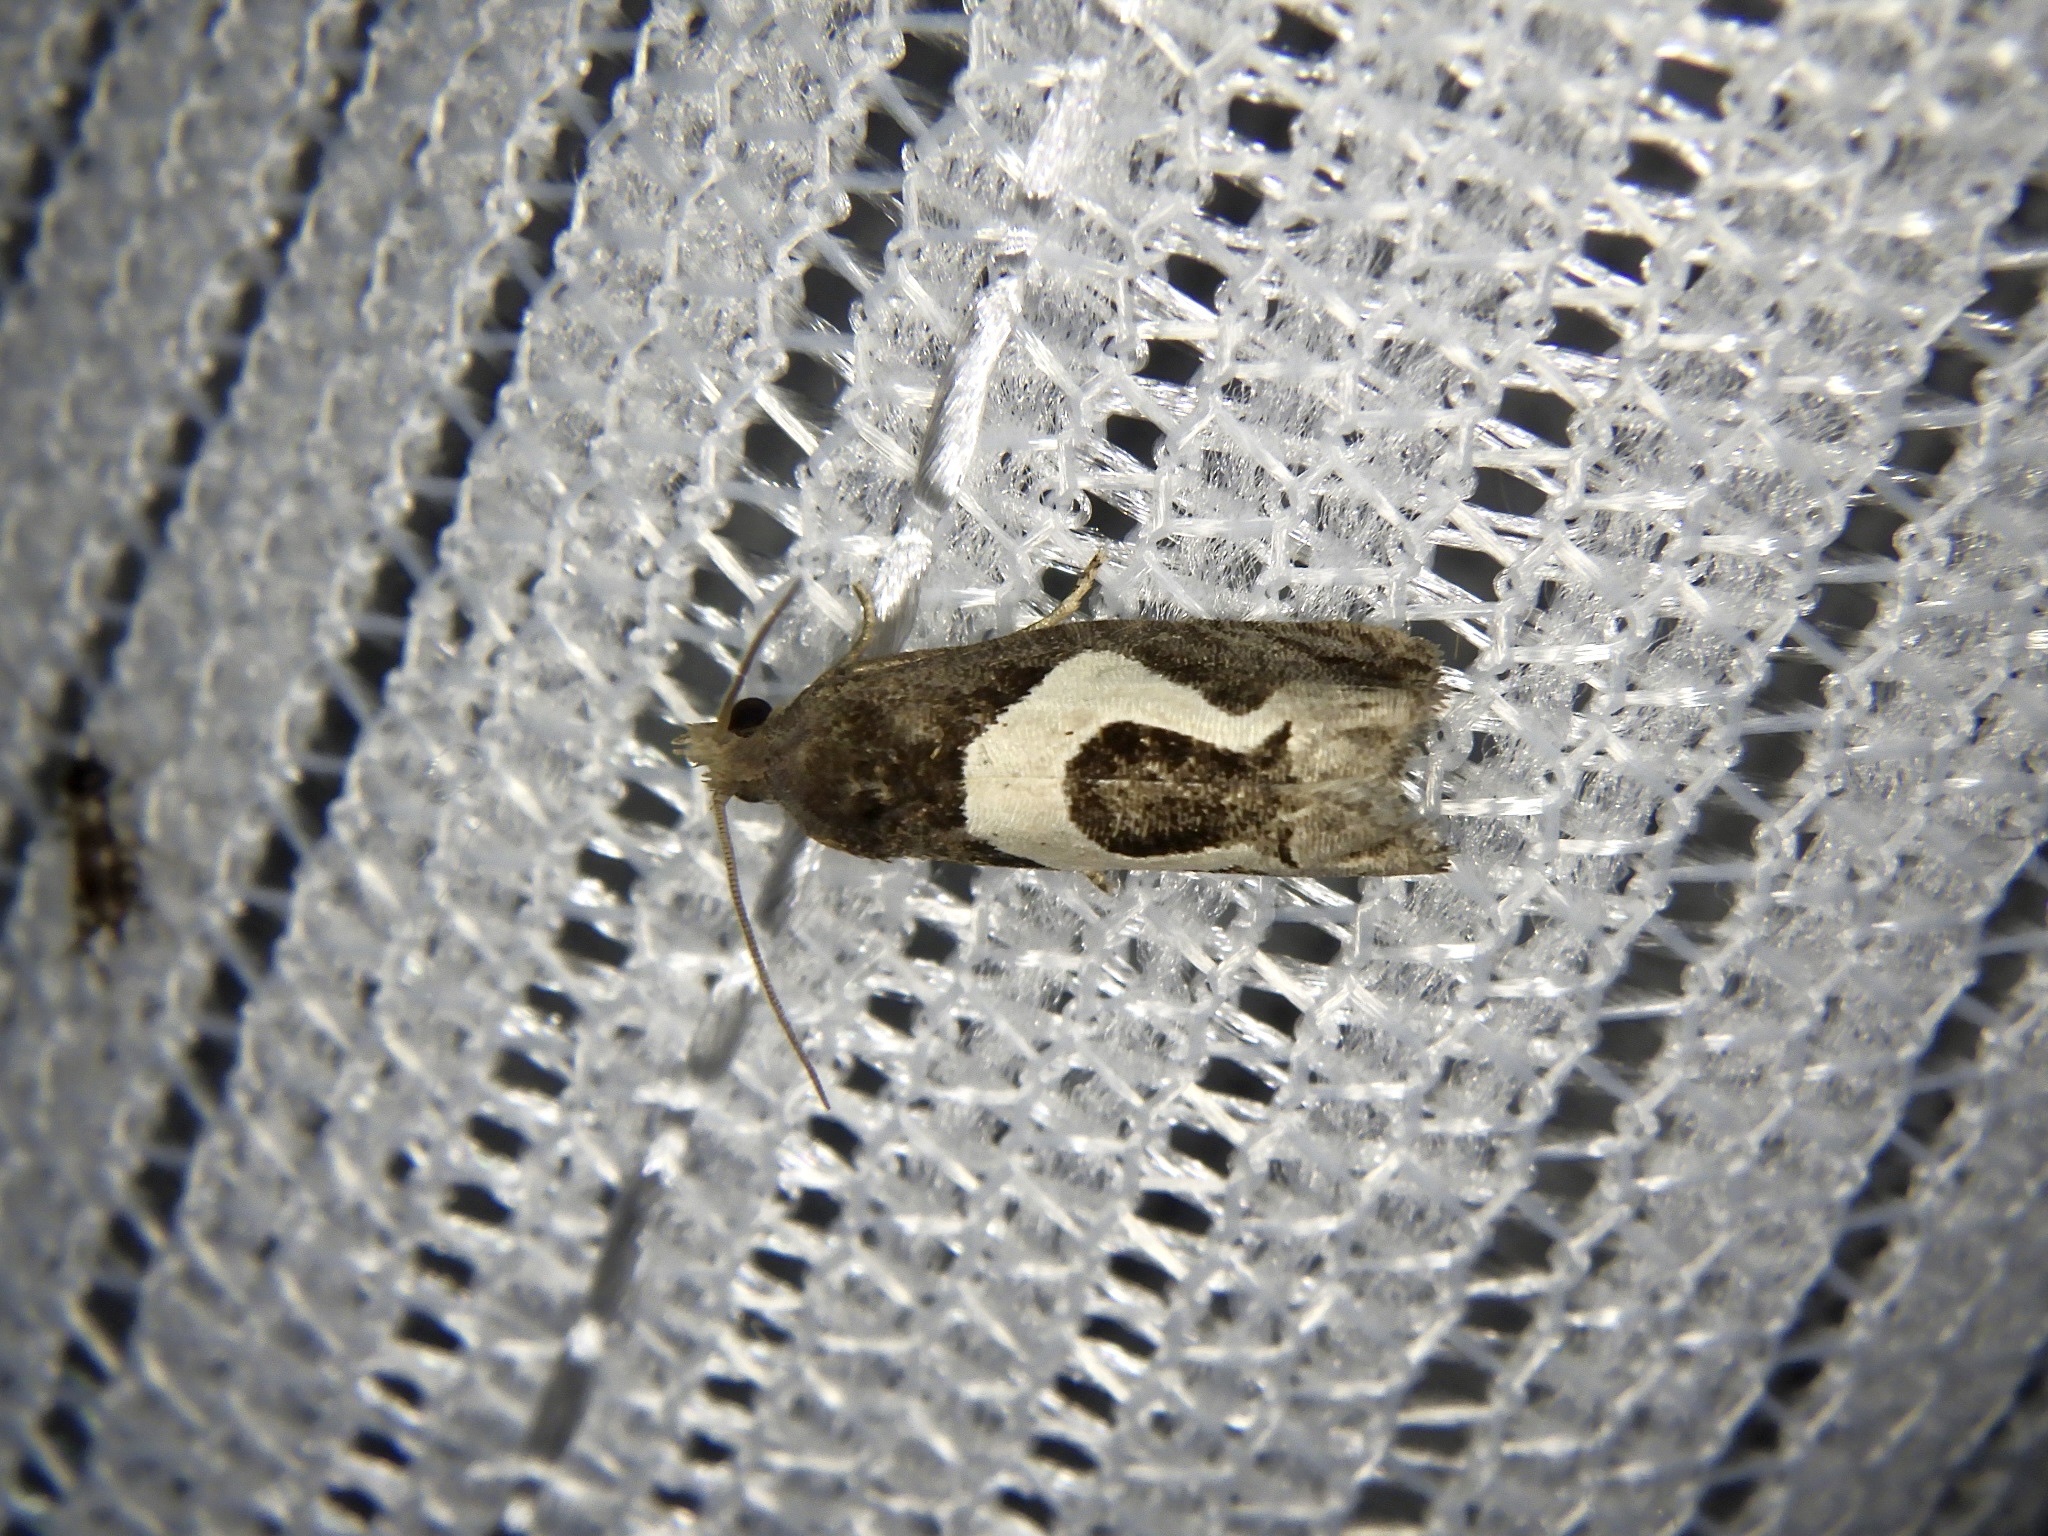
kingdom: Animalia
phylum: Arthropoda
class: Insecta
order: Lepidoptera
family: Tortricidae
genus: Epiblema
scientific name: Epiblema foenella
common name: White-foot bell
